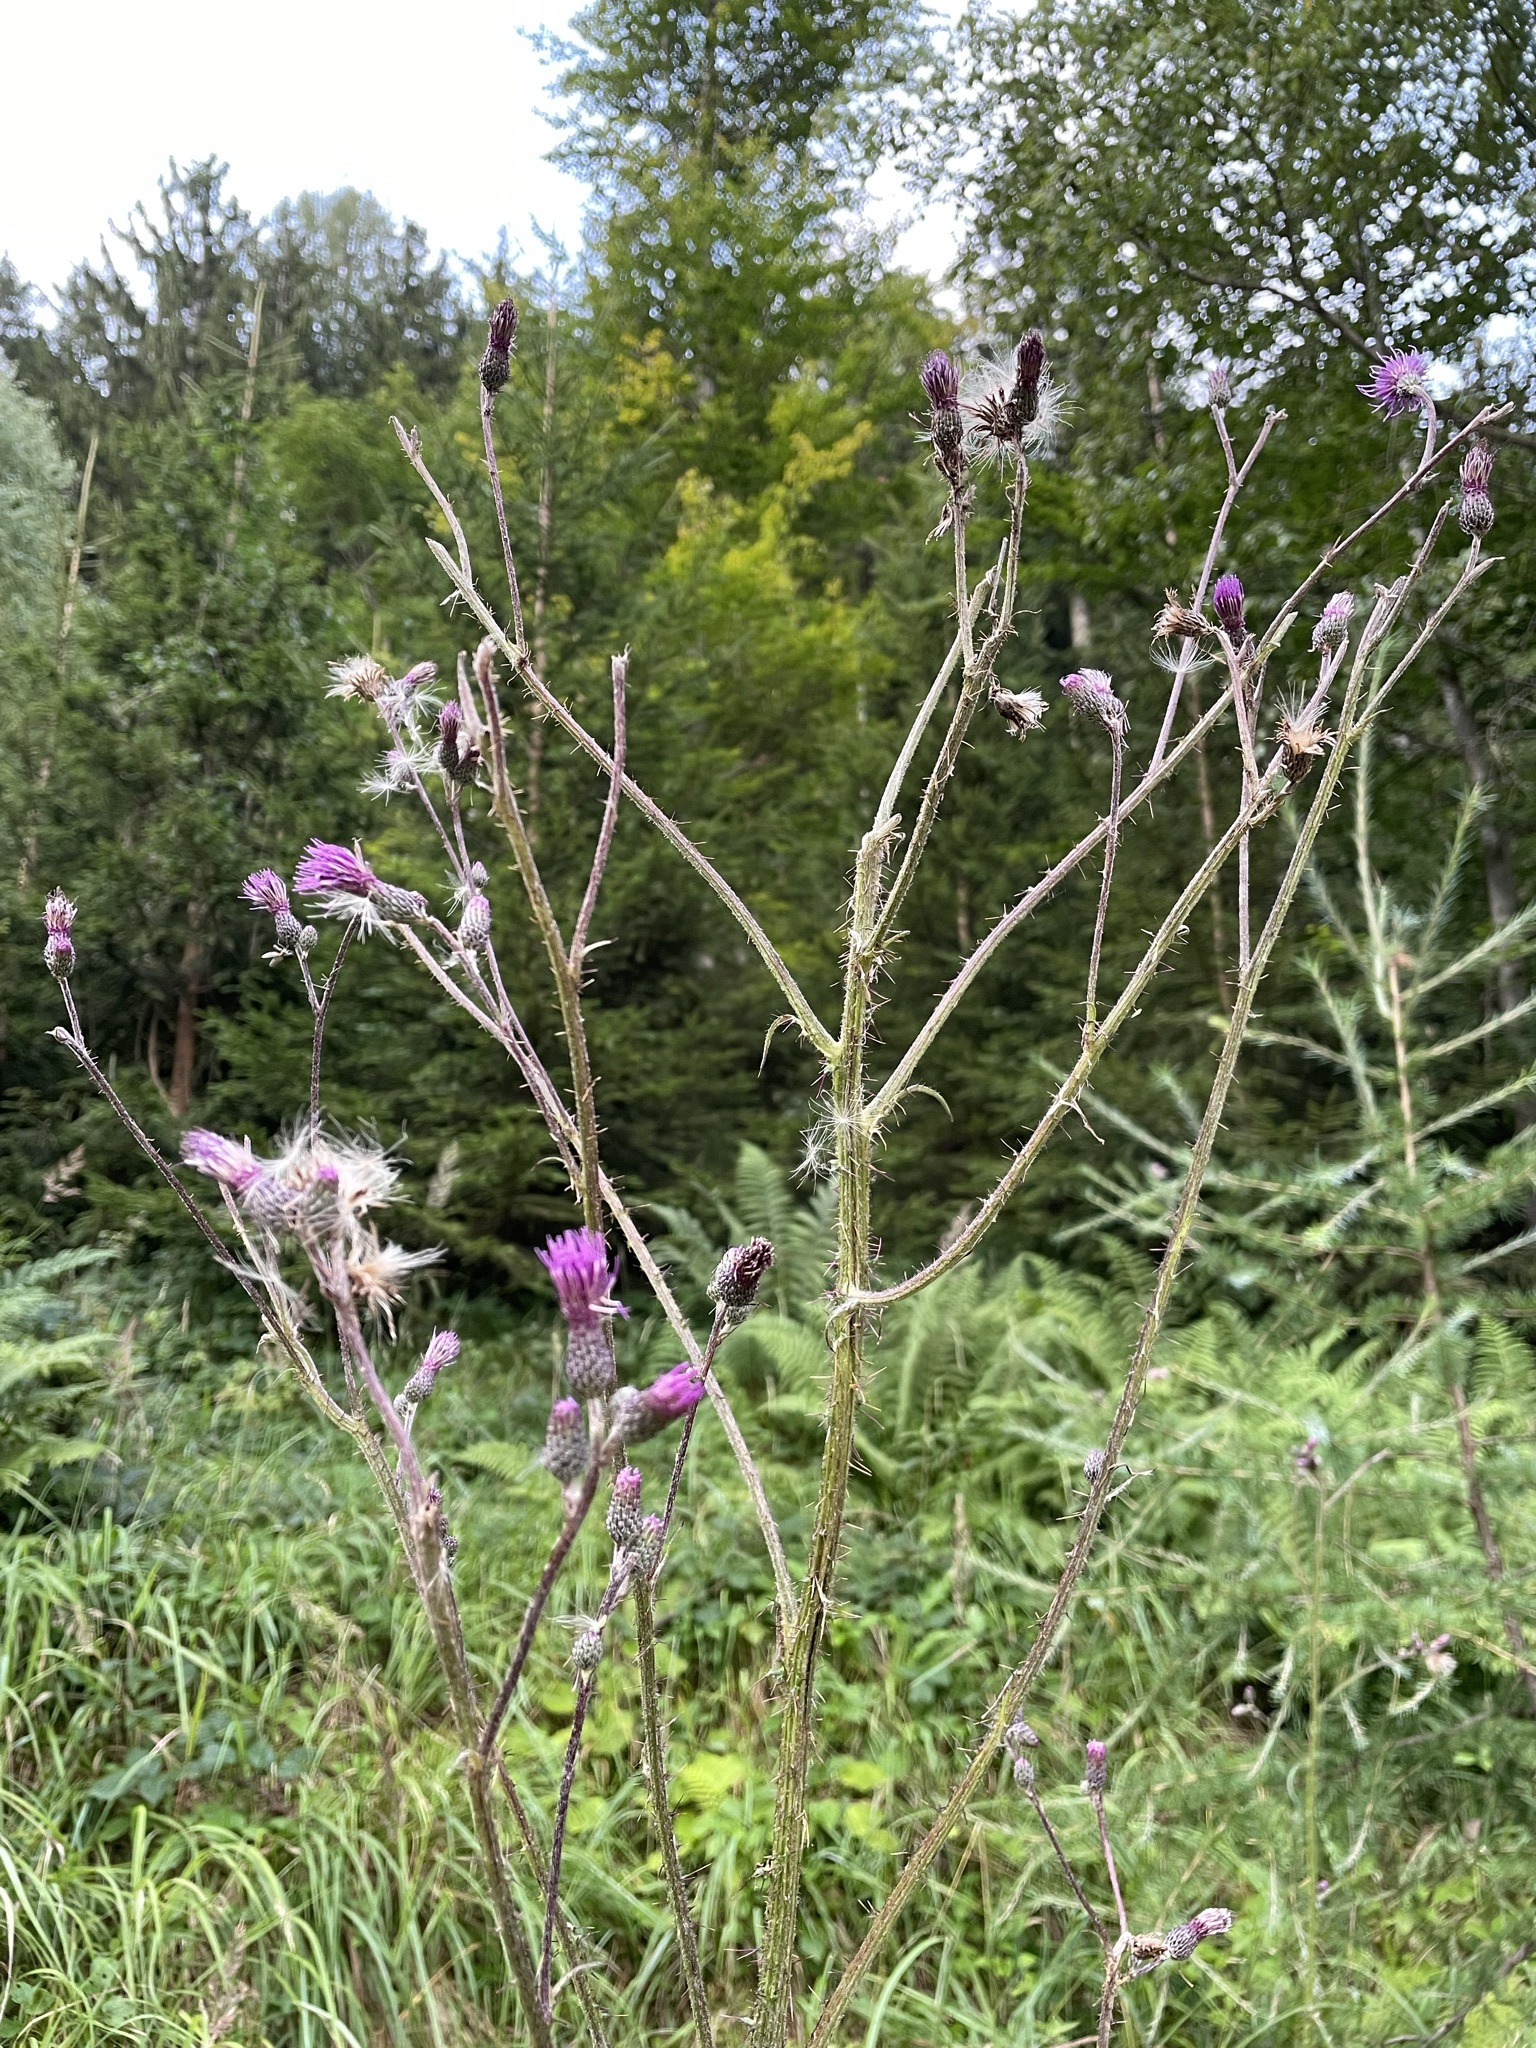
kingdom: Plantae
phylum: Tracheophyta
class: Magnoliopsida
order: Asterales
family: Asteraceae
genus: Cirsium
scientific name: Cirsium palustre
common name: Marsh thistle
